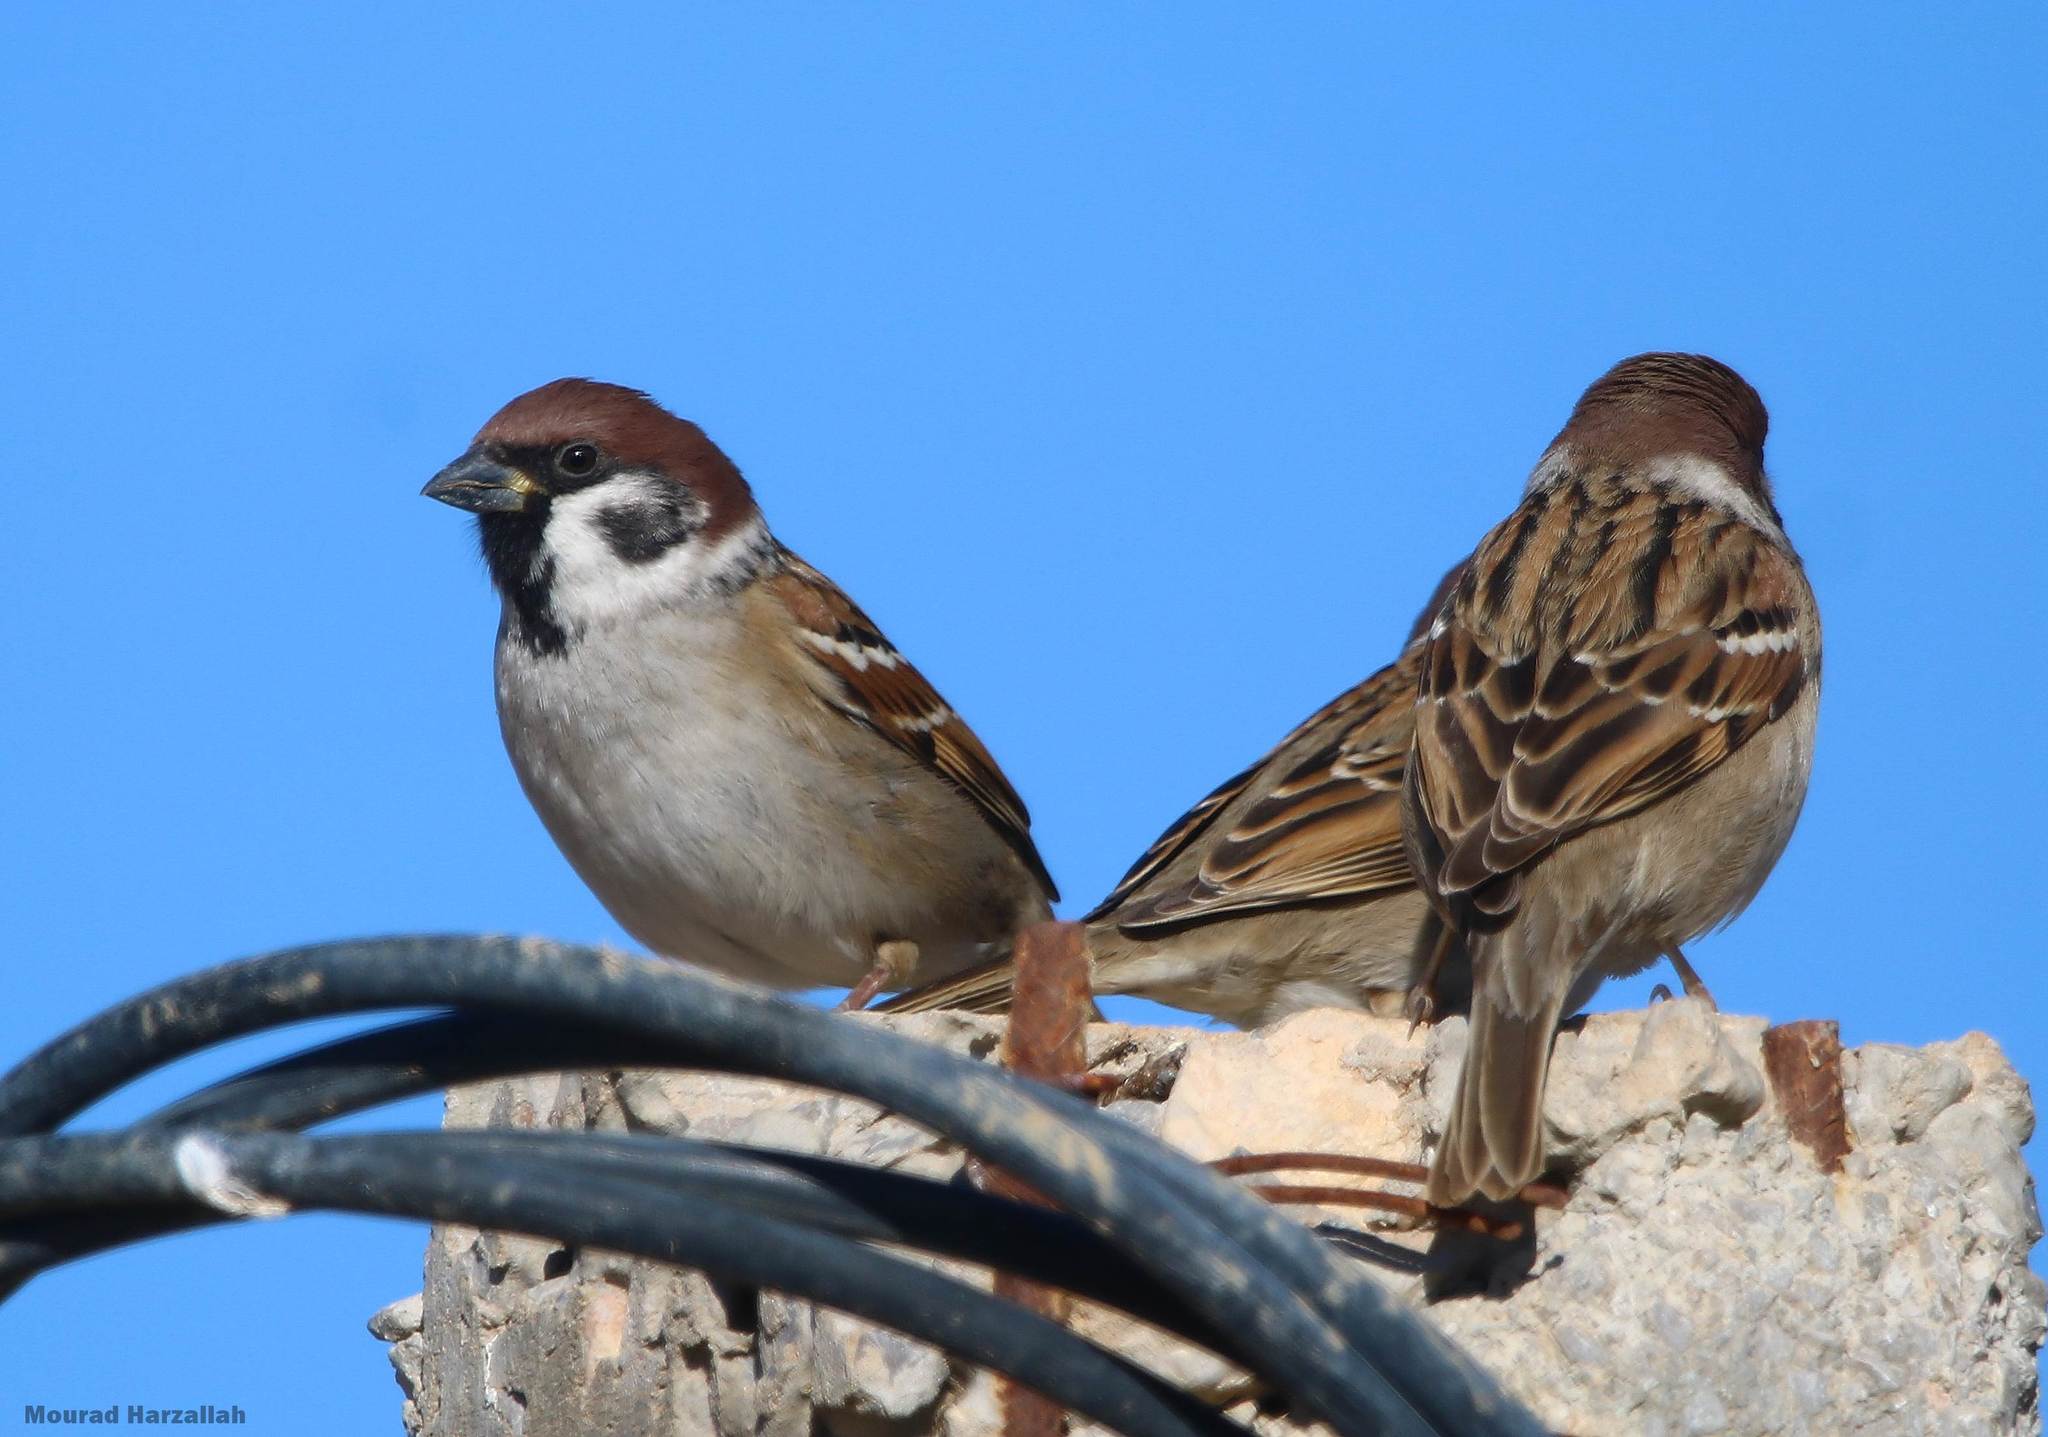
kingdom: Animalia
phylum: Chordata
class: Aves
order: Passeriformes
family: Passeridae
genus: Passer
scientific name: Passer montanus
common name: Eurasian tree sparrow
